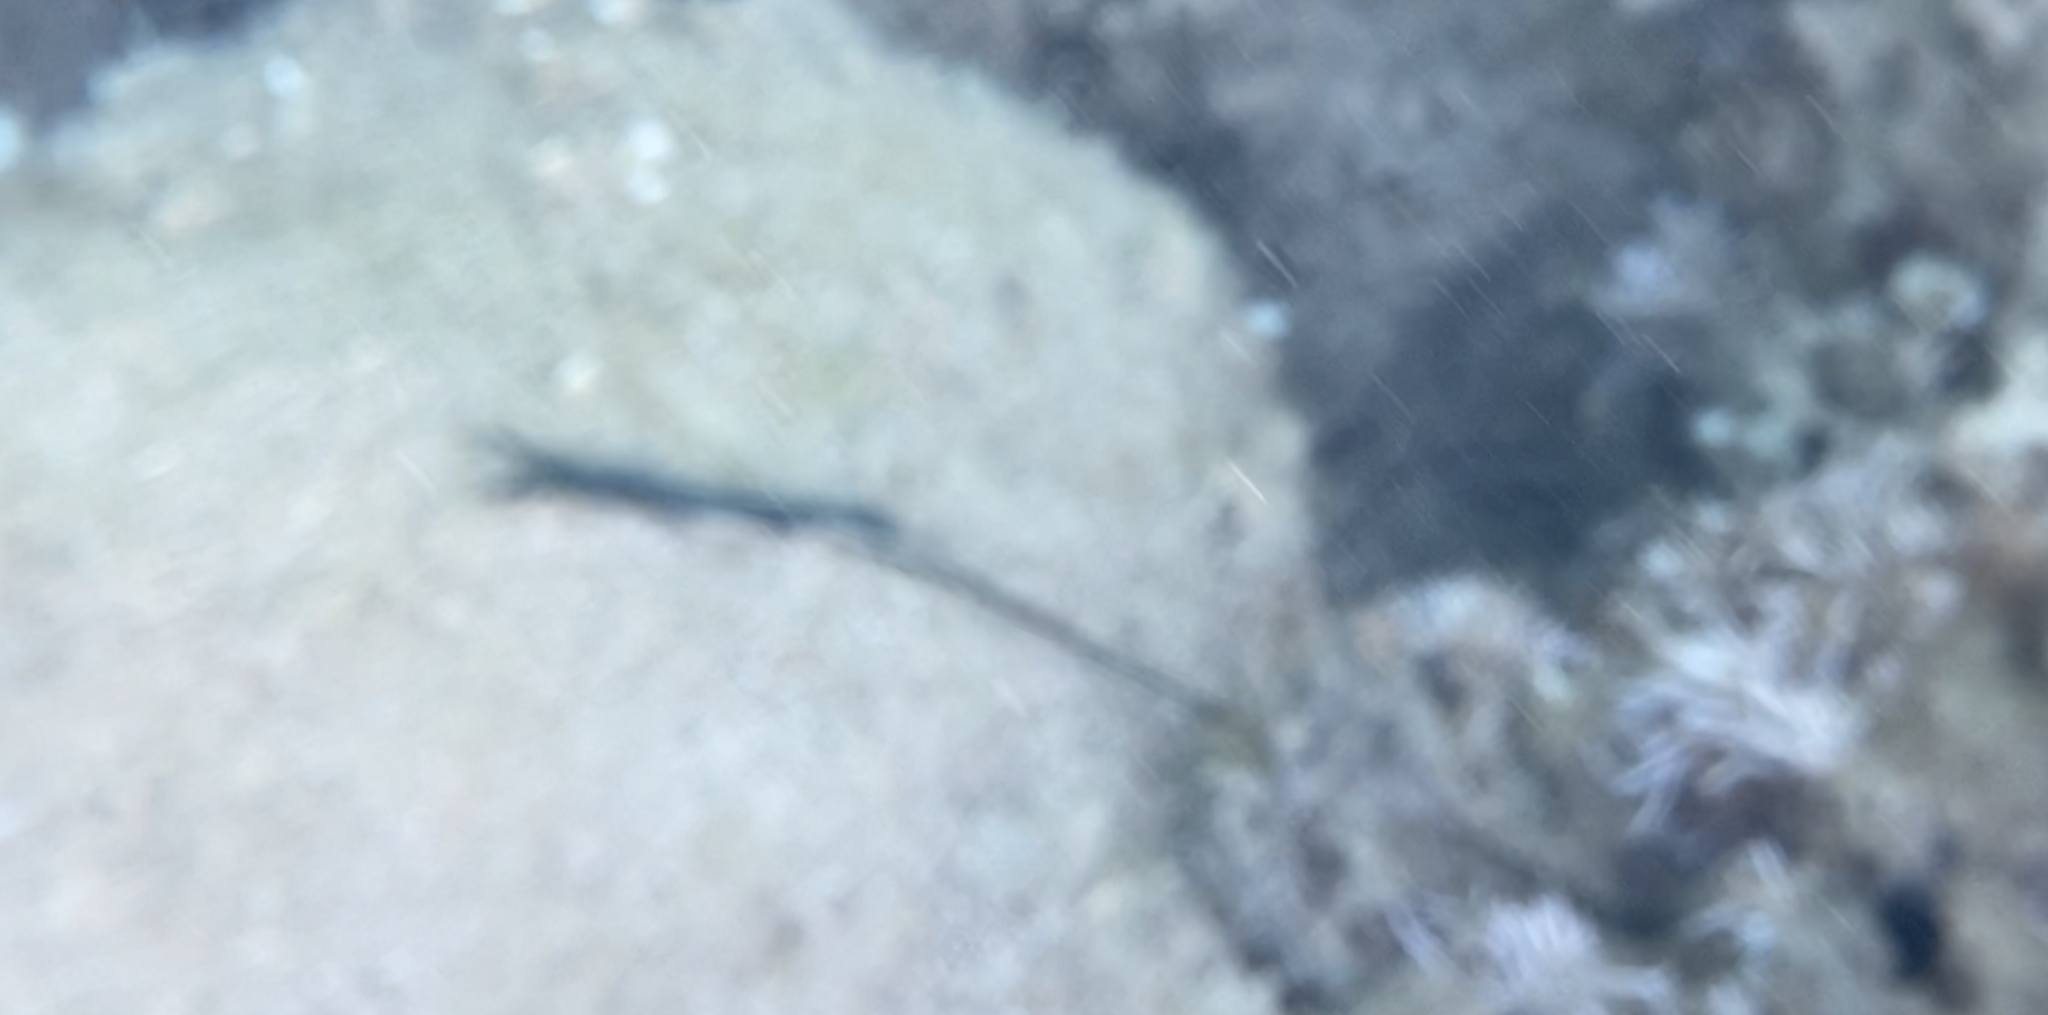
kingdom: Animalia
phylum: Annelida
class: Polychaeta
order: Echiuroidea
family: Bonelliidae
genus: Bonellia
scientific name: Bonellia viridis
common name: Green spoon worm
